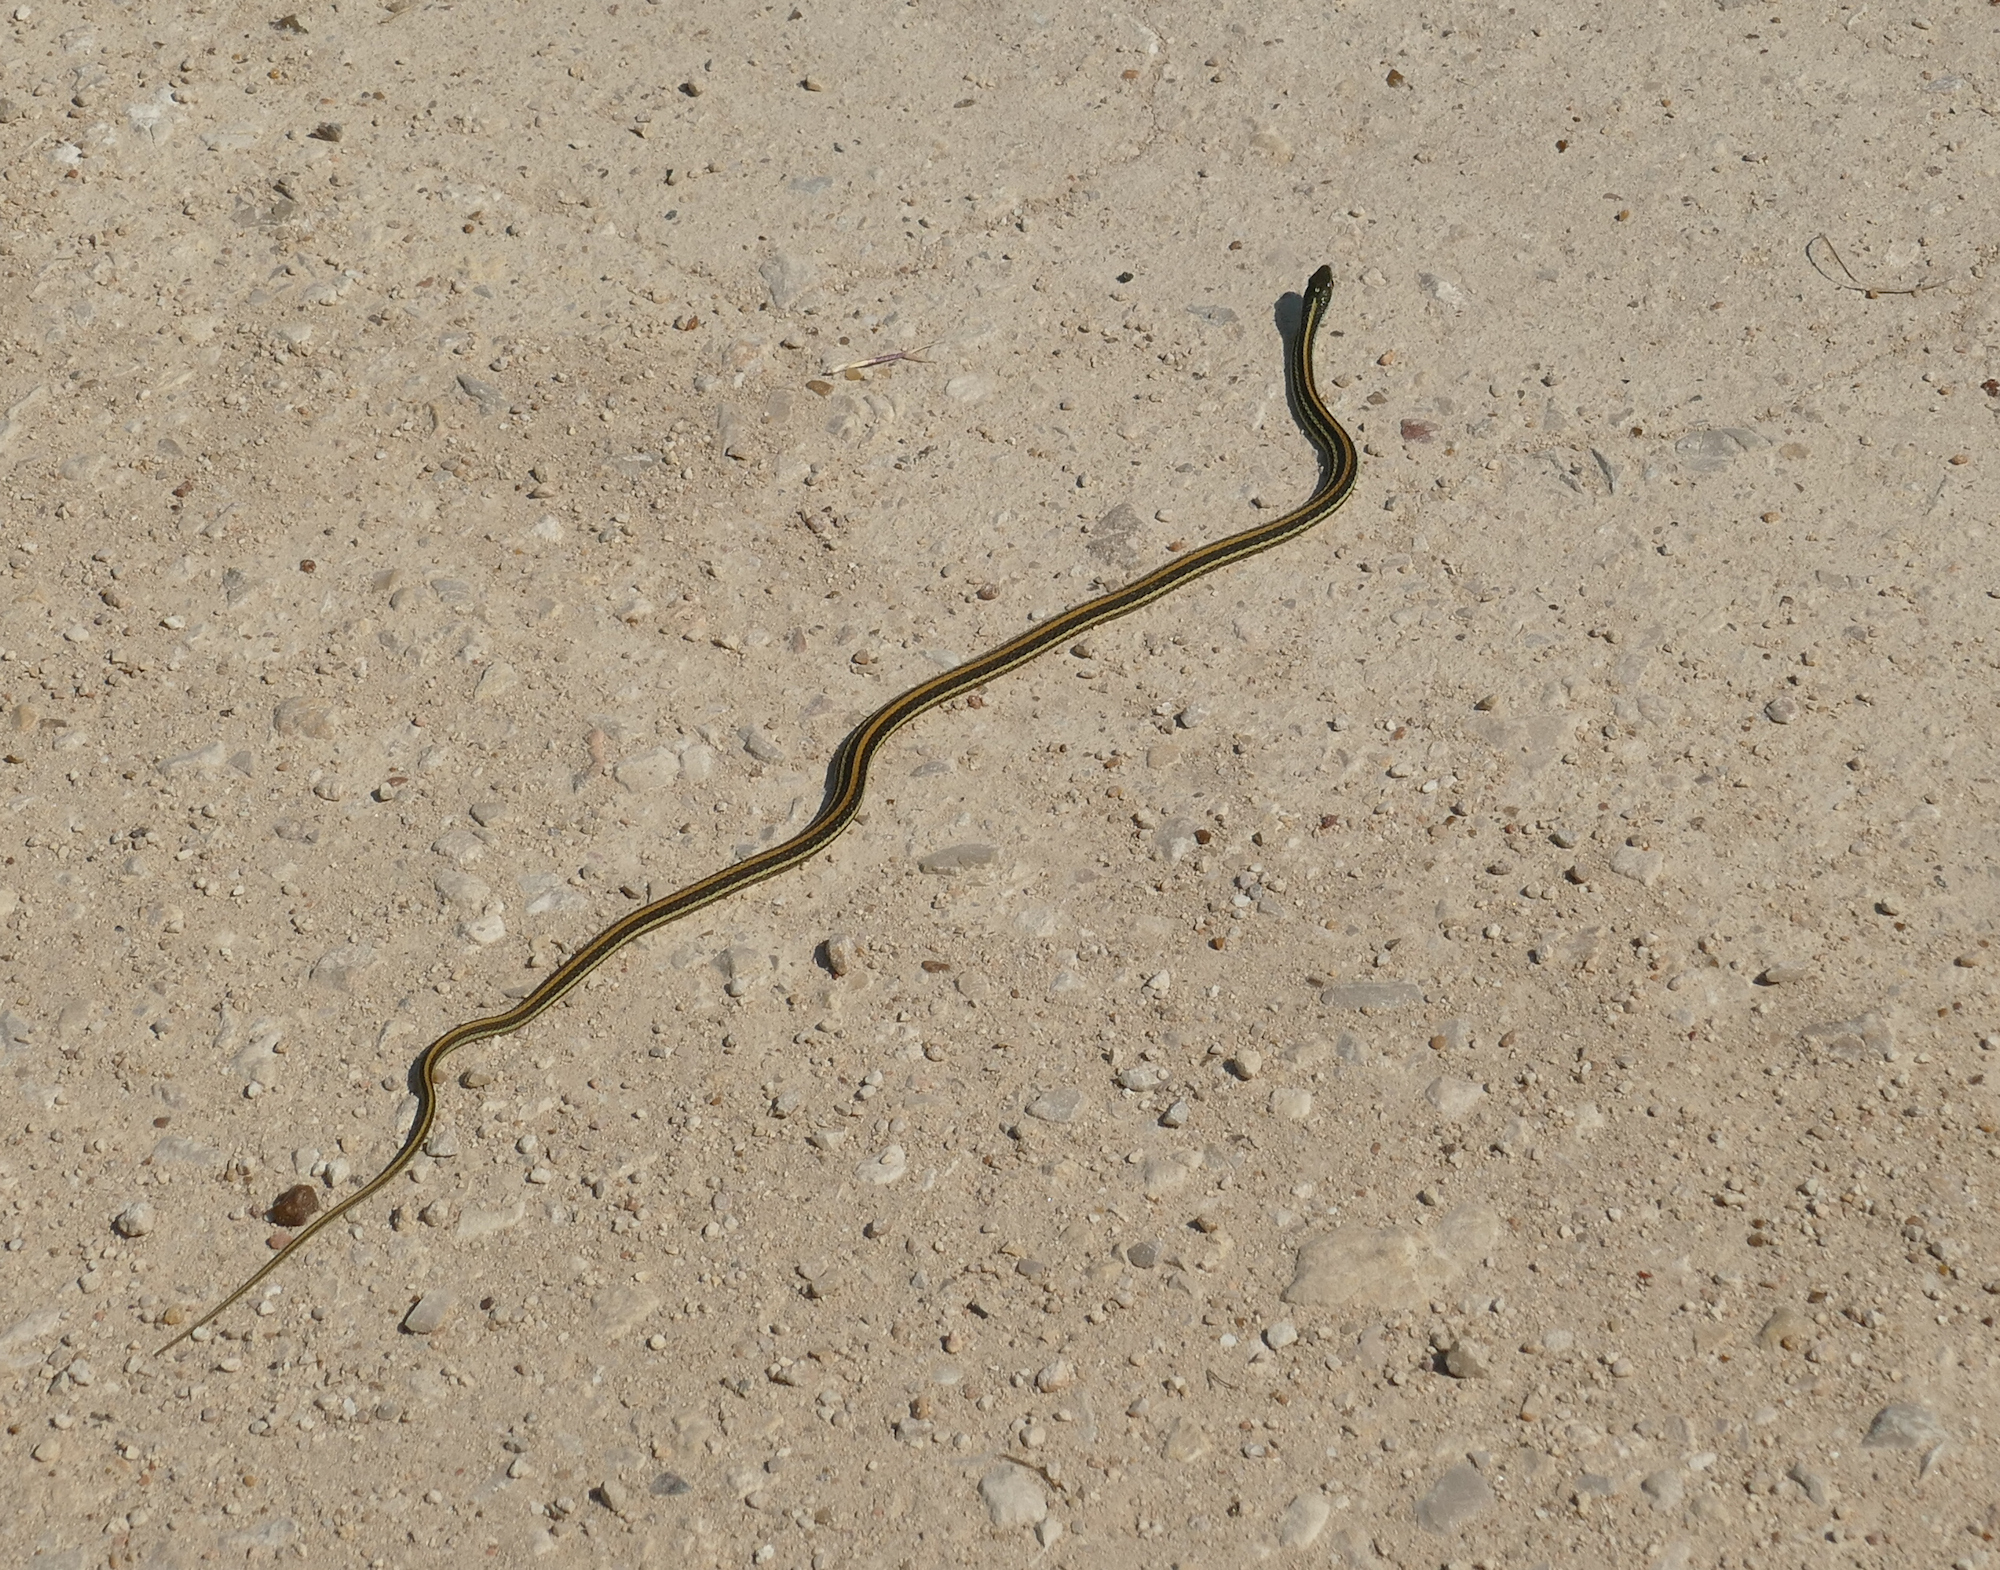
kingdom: Animalia
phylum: Chordata
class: Squamata
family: Colubridae
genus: Thamnophis
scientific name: Thamnophis proximus
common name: Western ribbon snake
